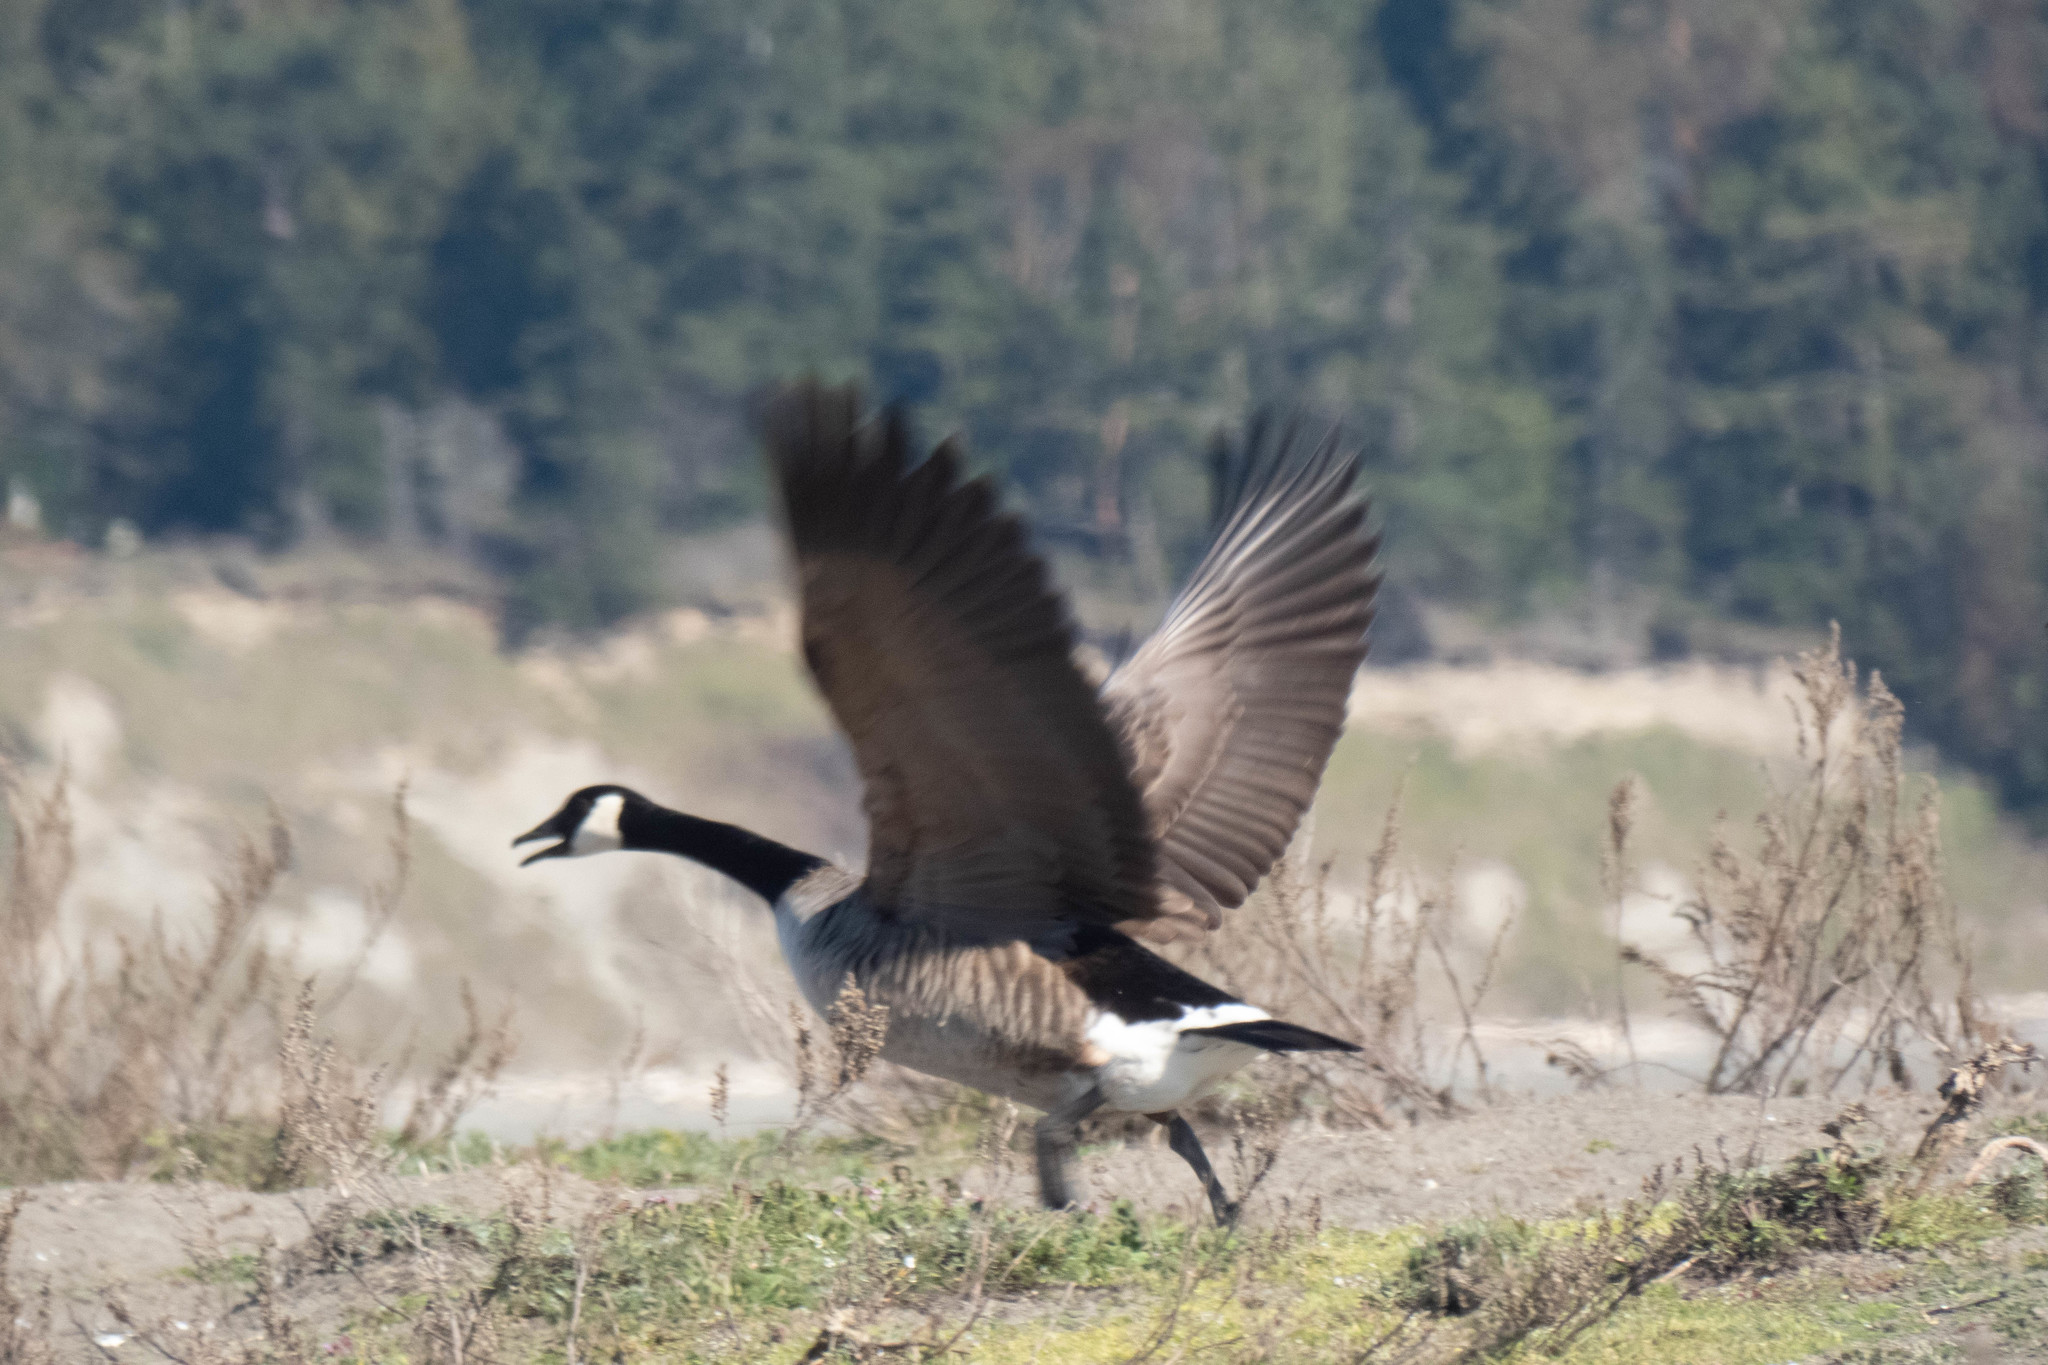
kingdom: Animalia
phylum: Chordata
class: Aves
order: Anseriformes
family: Anatidae
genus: Branta
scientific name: Branta canadensis
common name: Canada goose
